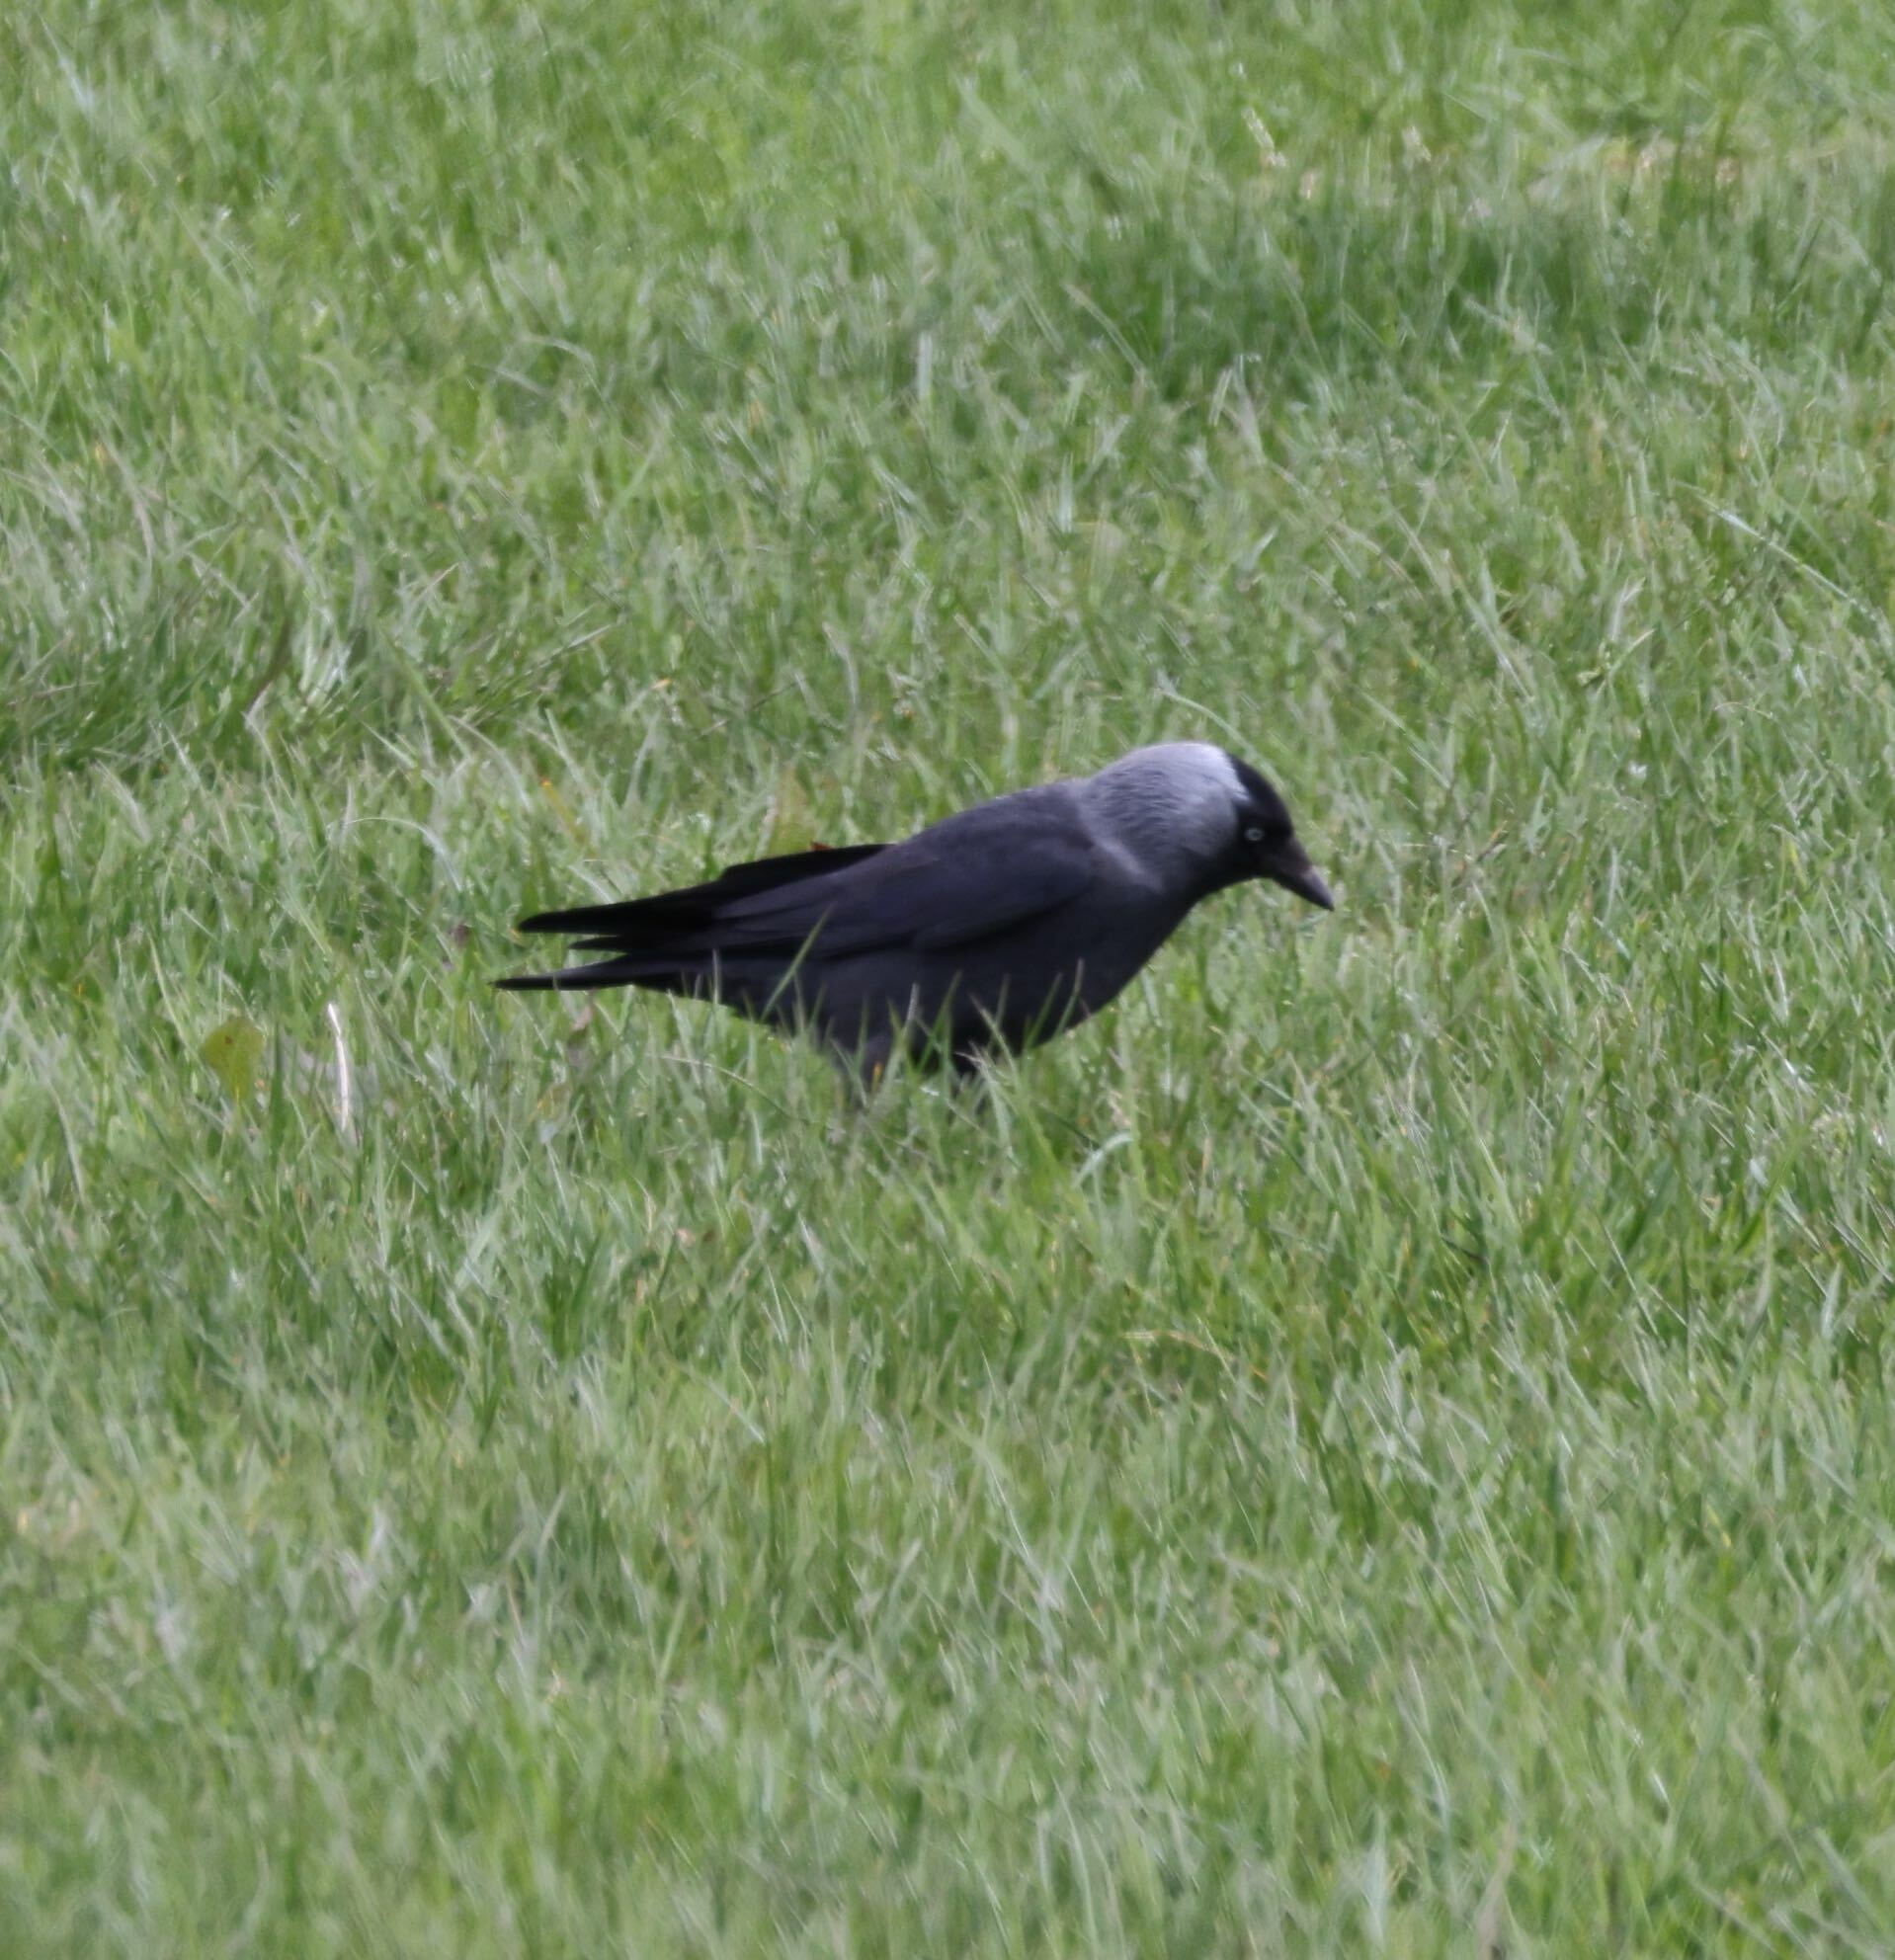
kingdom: Animalia
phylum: Chordata
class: Aves
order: Passeriformes
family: Corvidae
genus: Coloeus
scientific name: Coloeus monedula
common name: Western jackdaw
